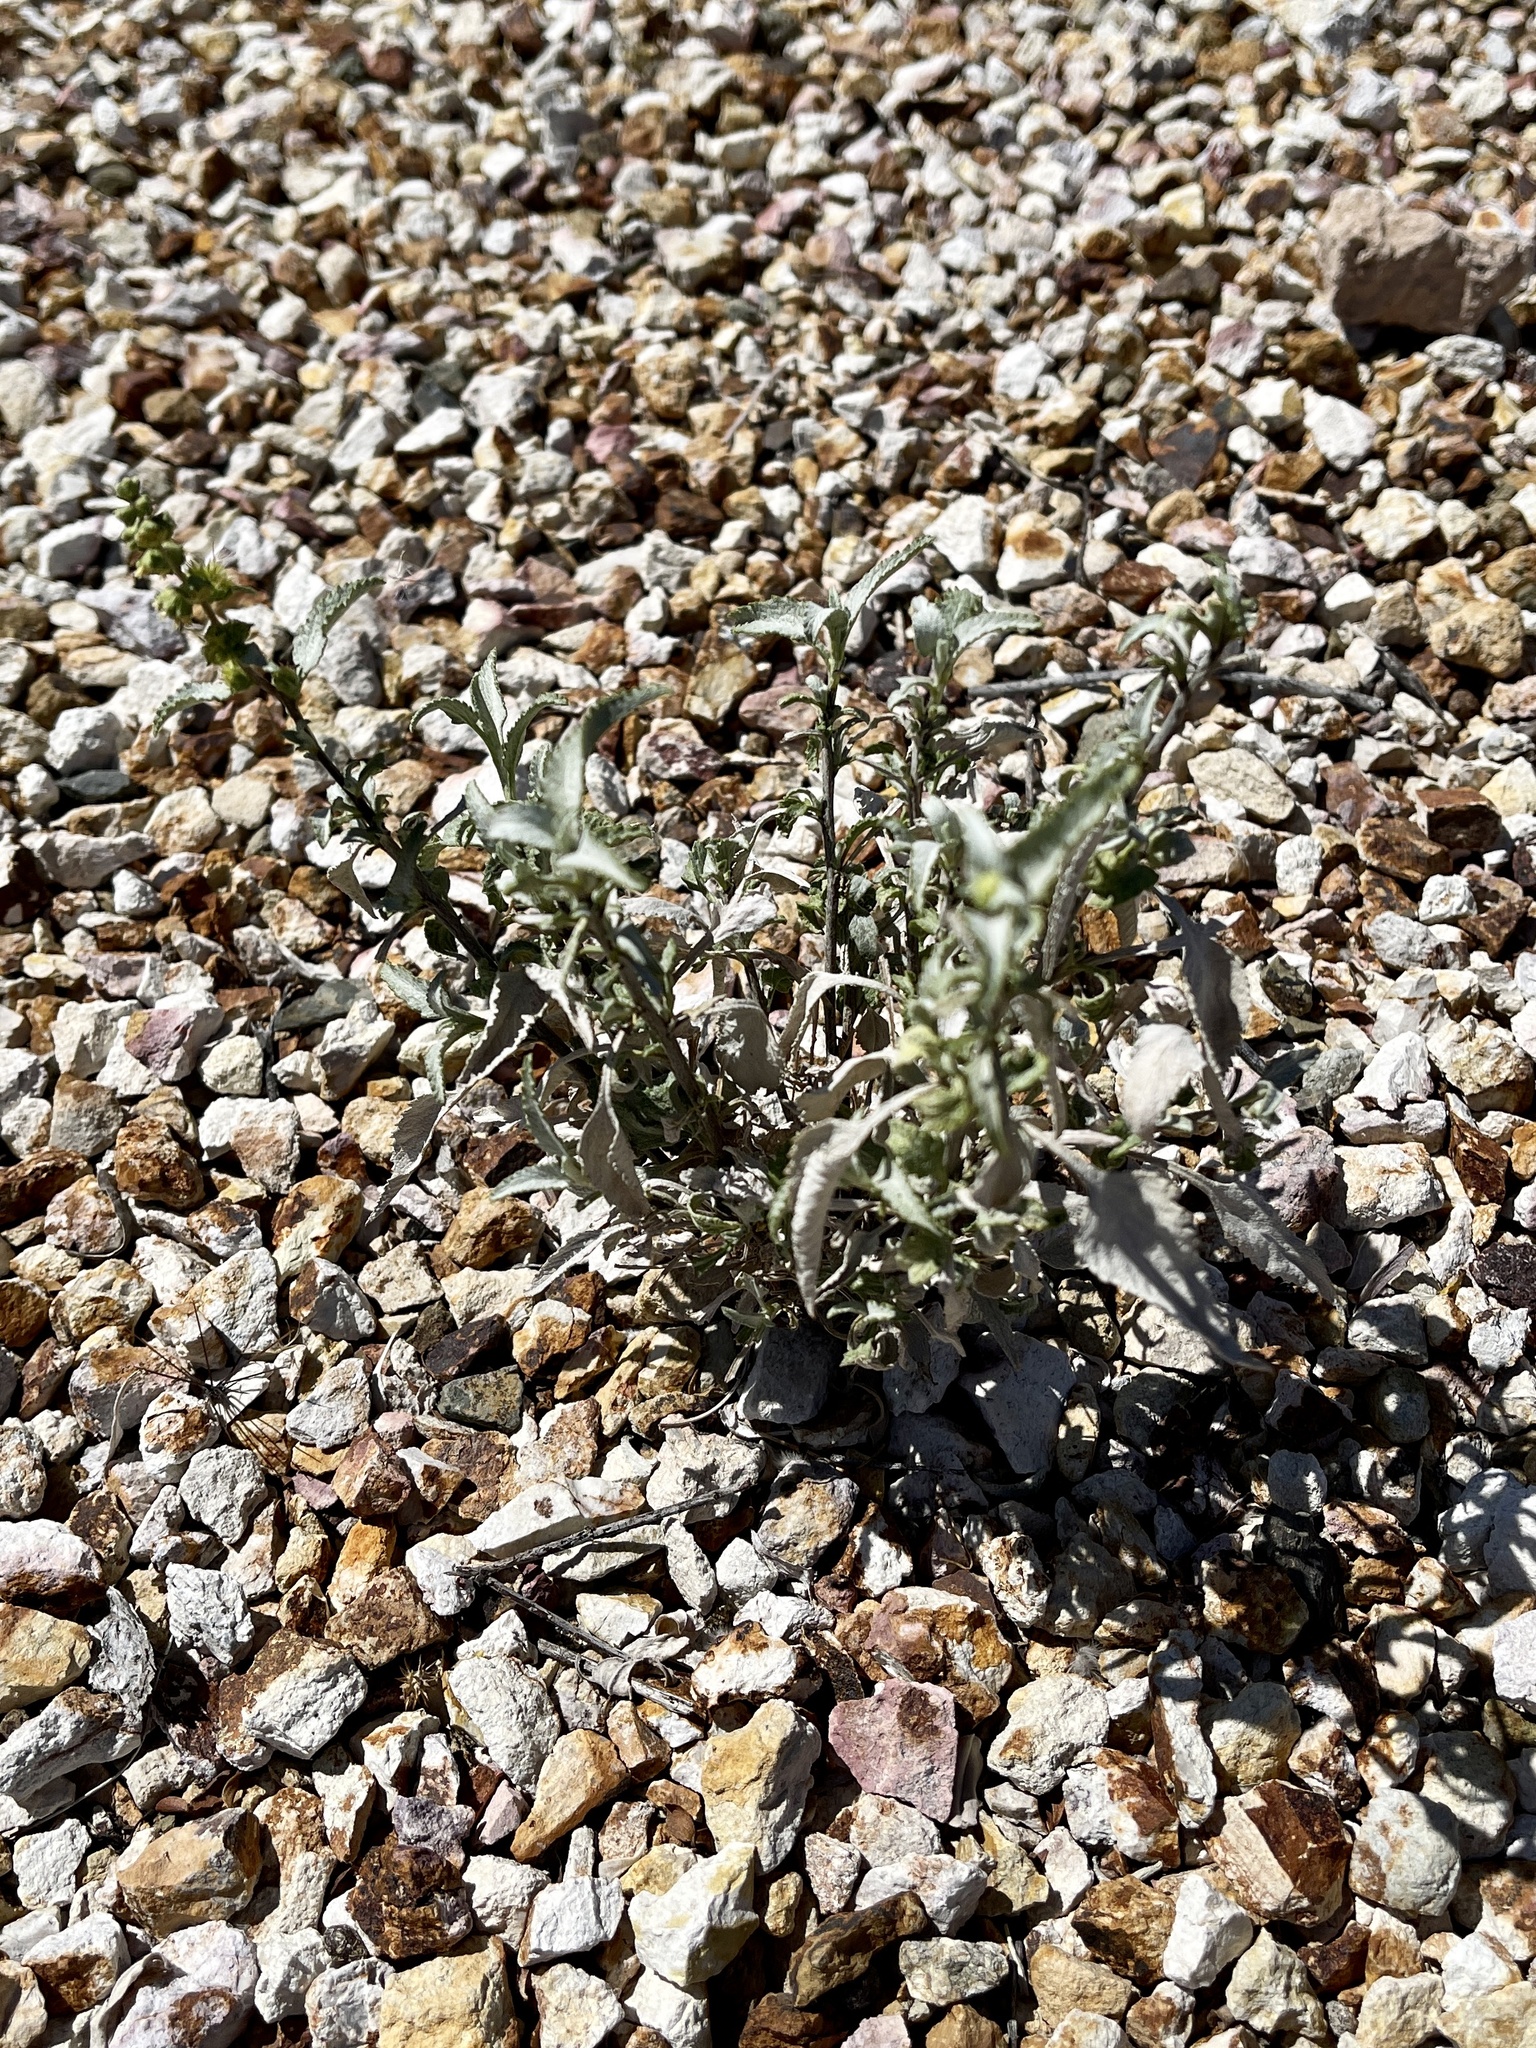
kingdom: Plantae
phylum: Tracheophyta
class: Magnoliopsida
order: Asterales
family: Asteraceae
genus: Ambrosia
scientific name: Ambrosia deltoidea
